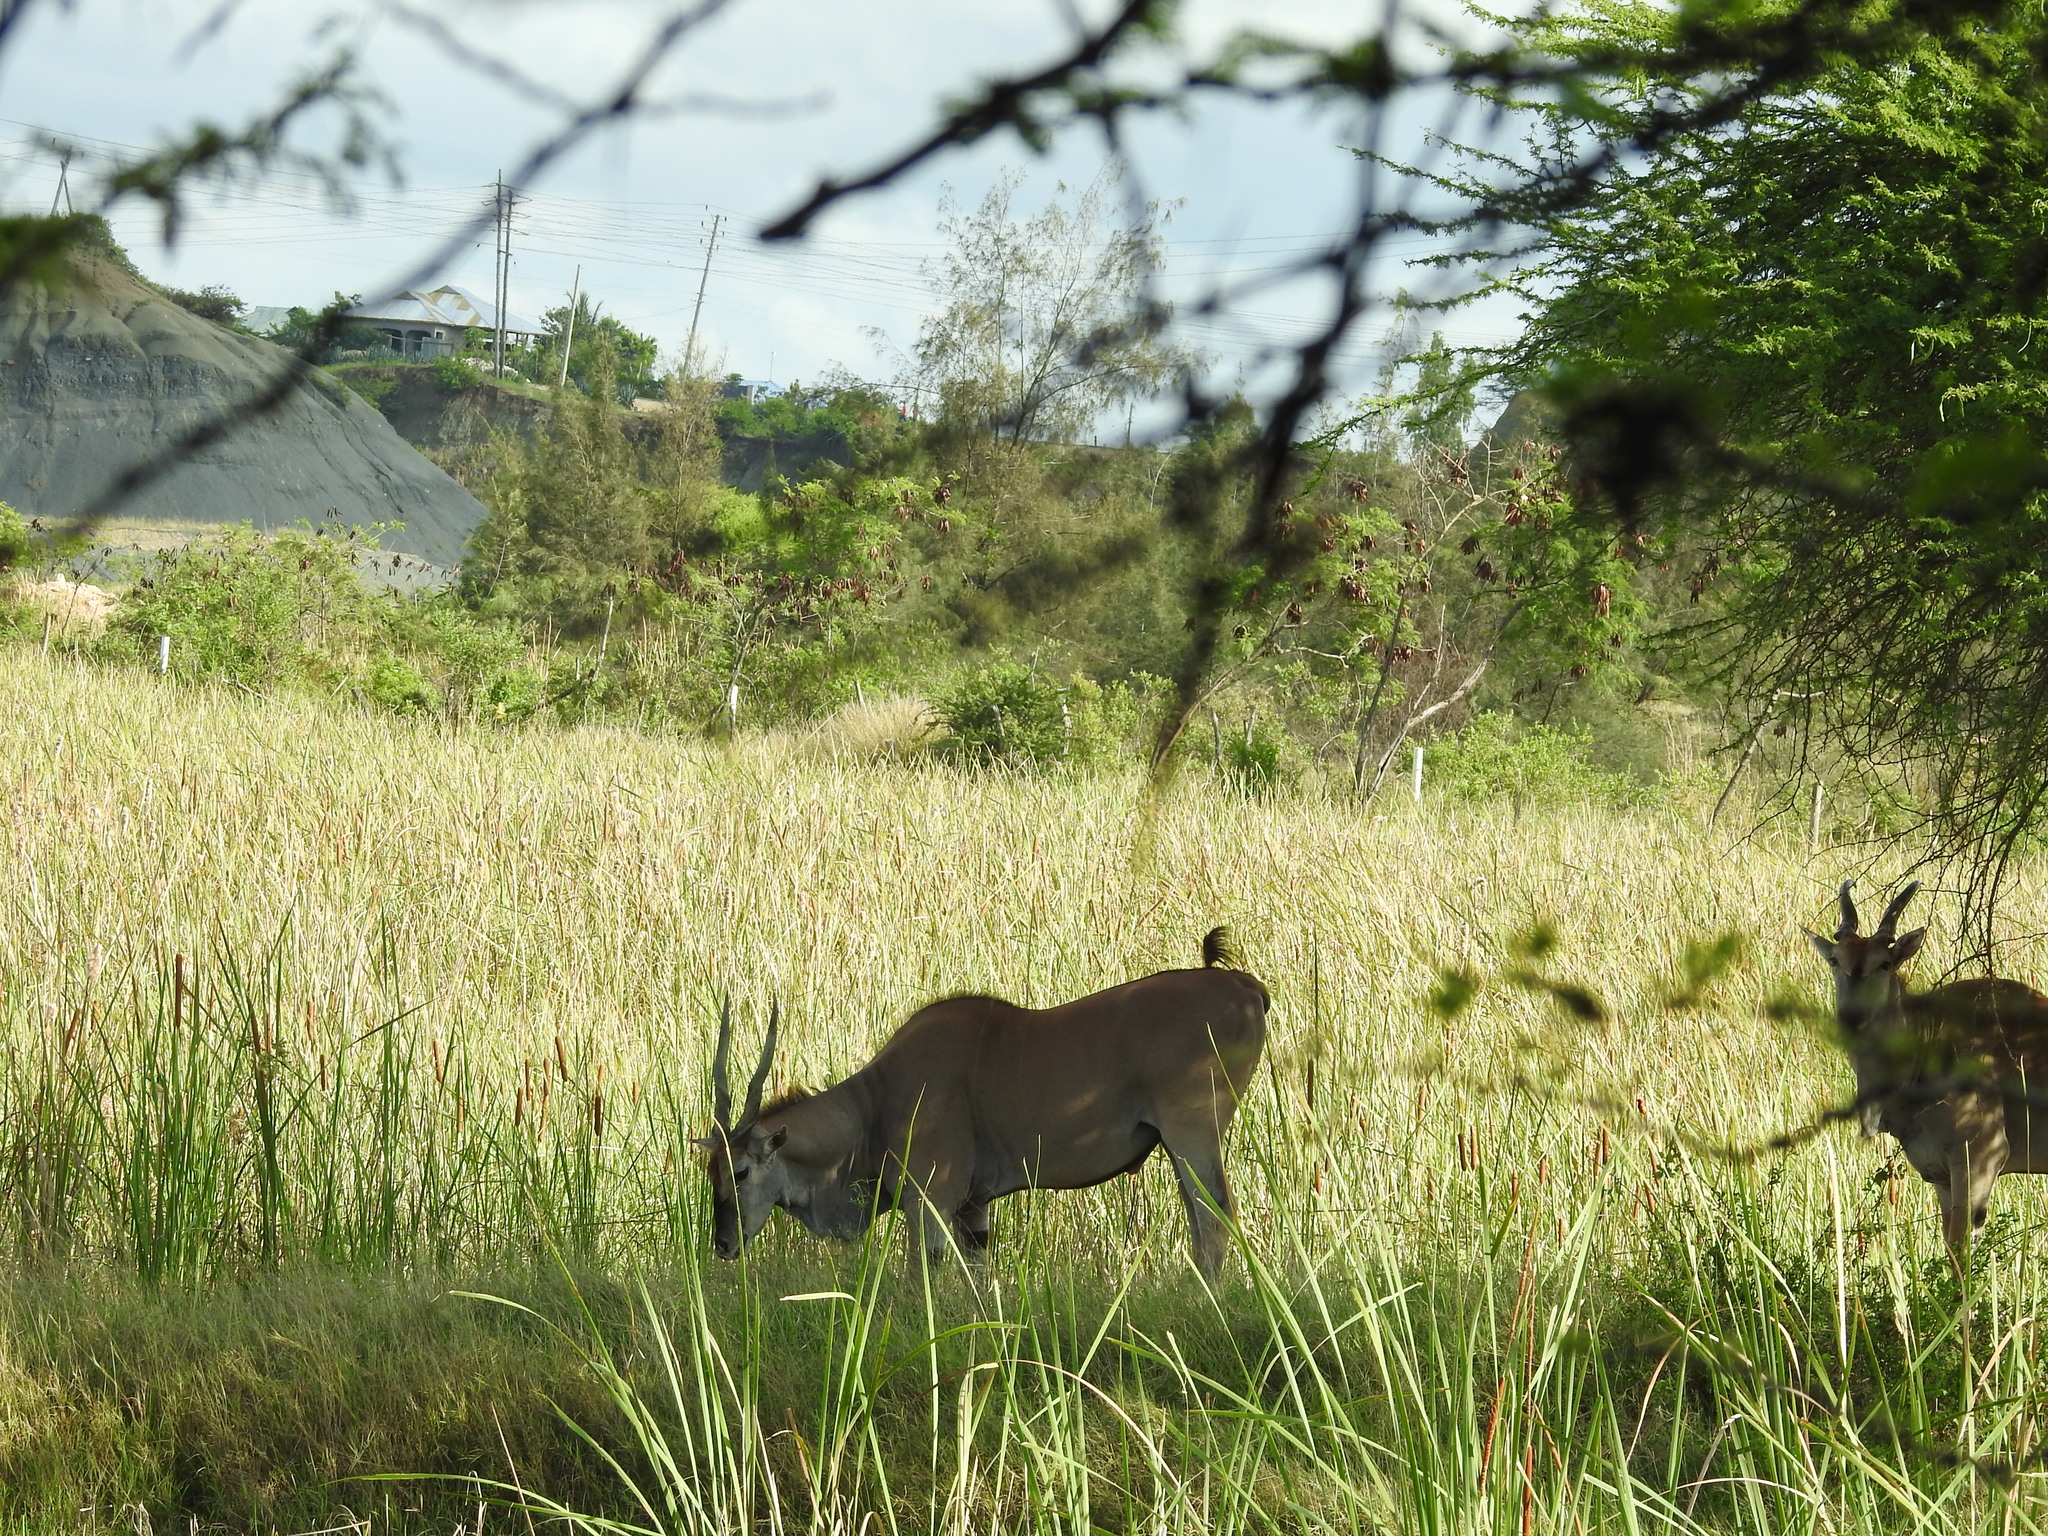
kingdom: Animalia
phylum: Chordata
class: Mammalia
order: Artiodactyla
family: Bovidae
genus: Taurotragus
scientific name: Taurotragus oryx
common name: Common eland
